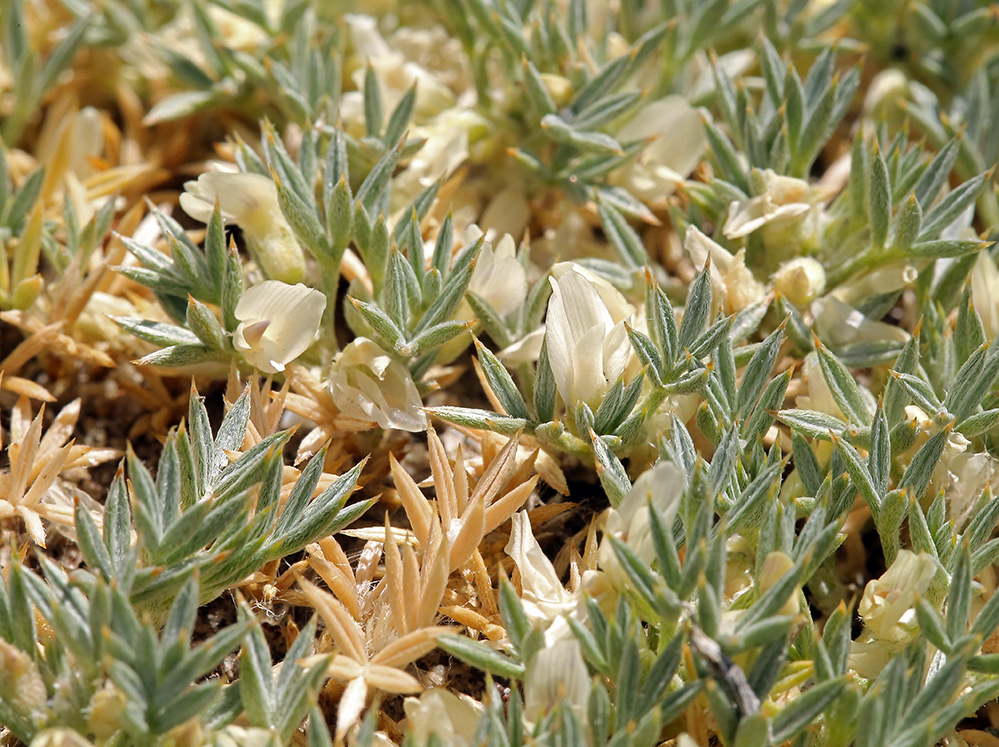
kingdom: Plantae
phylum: Tracheophyta
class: Magnoliopsida
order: Fabales
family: Fabaceae
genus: Astragalus
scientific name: Astragalus kentrophyta
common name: Prickly milk-vetch
